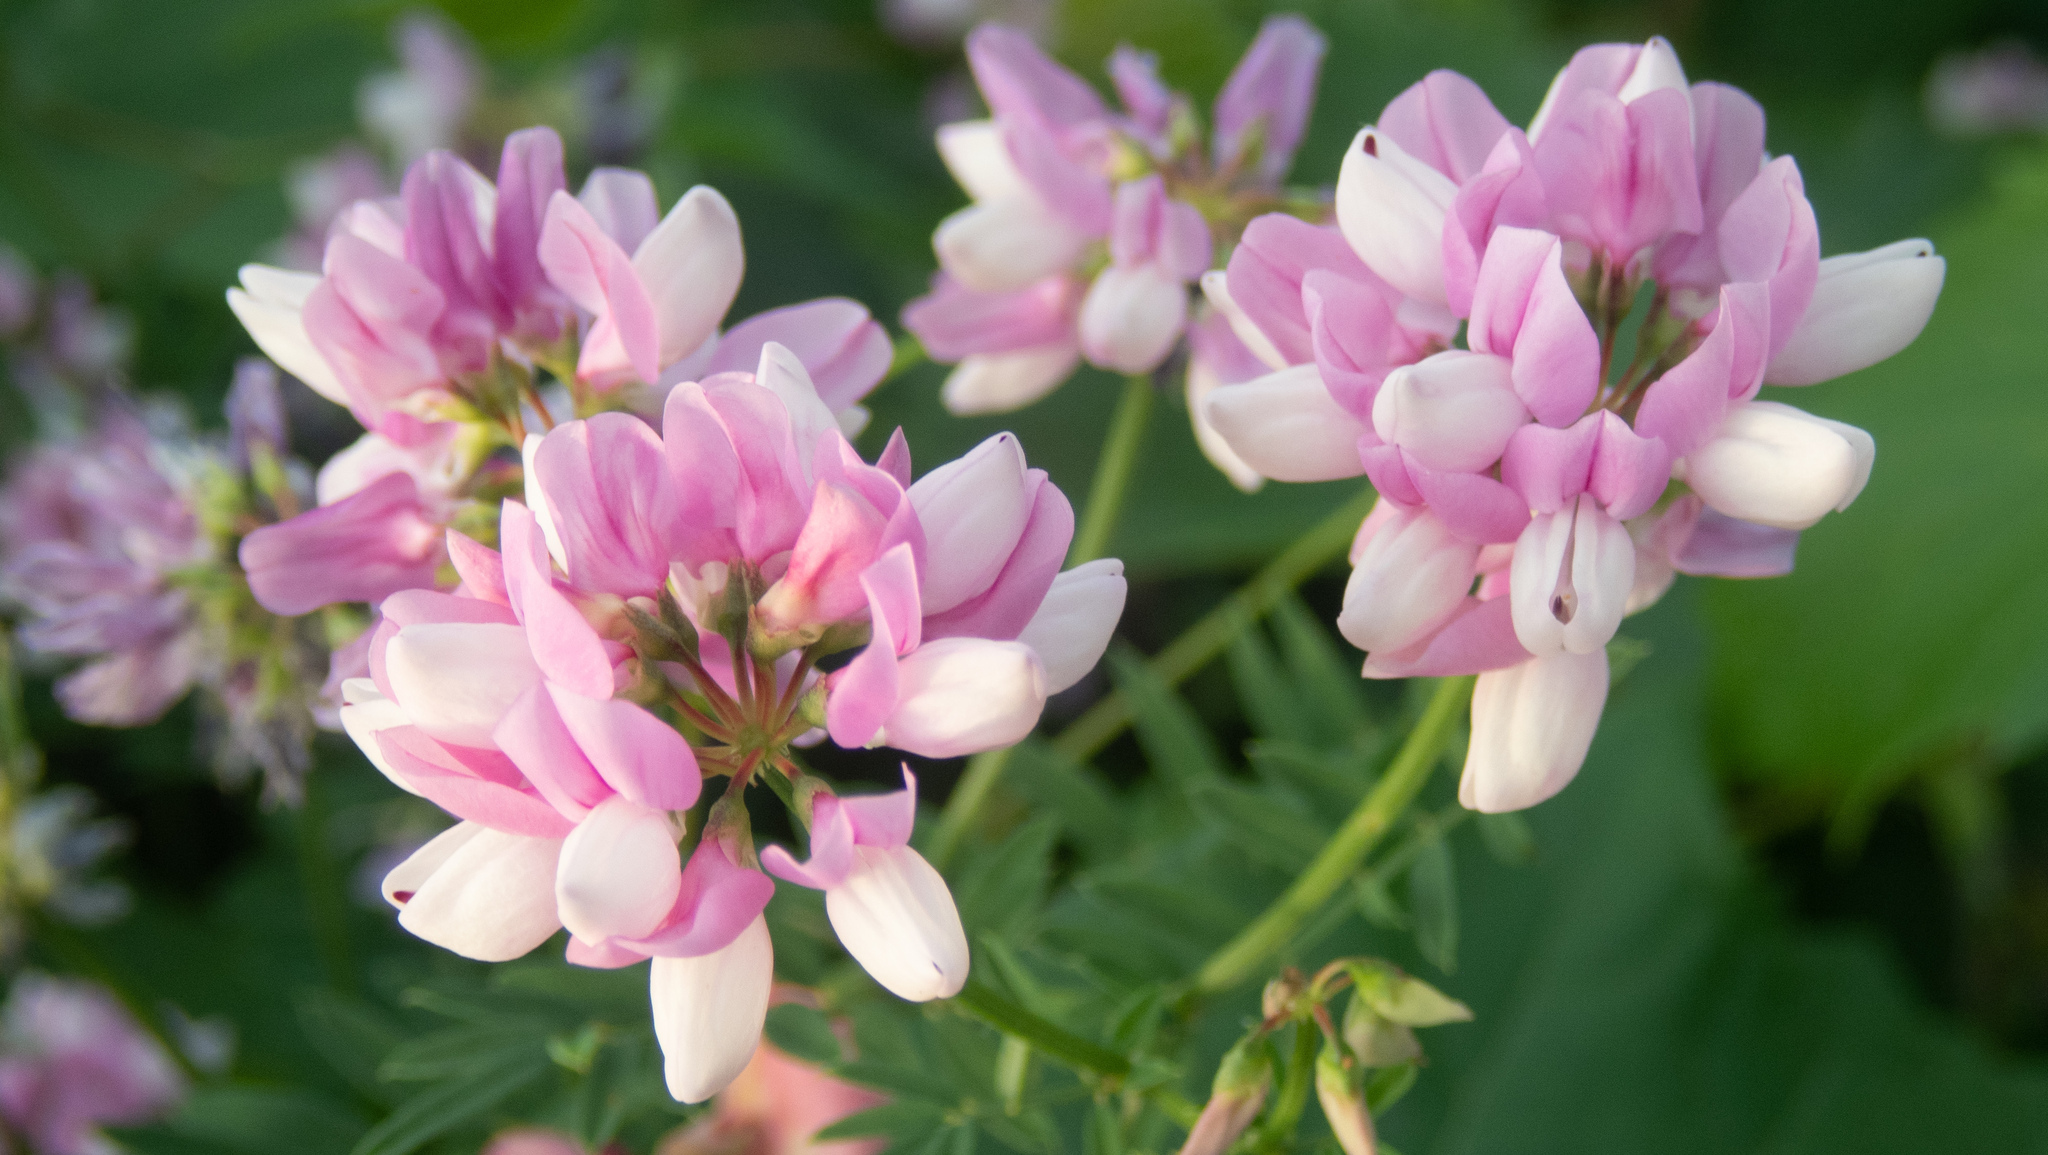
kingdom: Plantae
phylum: Tracheophyta
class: Magnoliopsida
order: Fabales
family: Fabaceae
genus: Coronilla
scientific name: Coronilla varia
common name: Crownvetch
